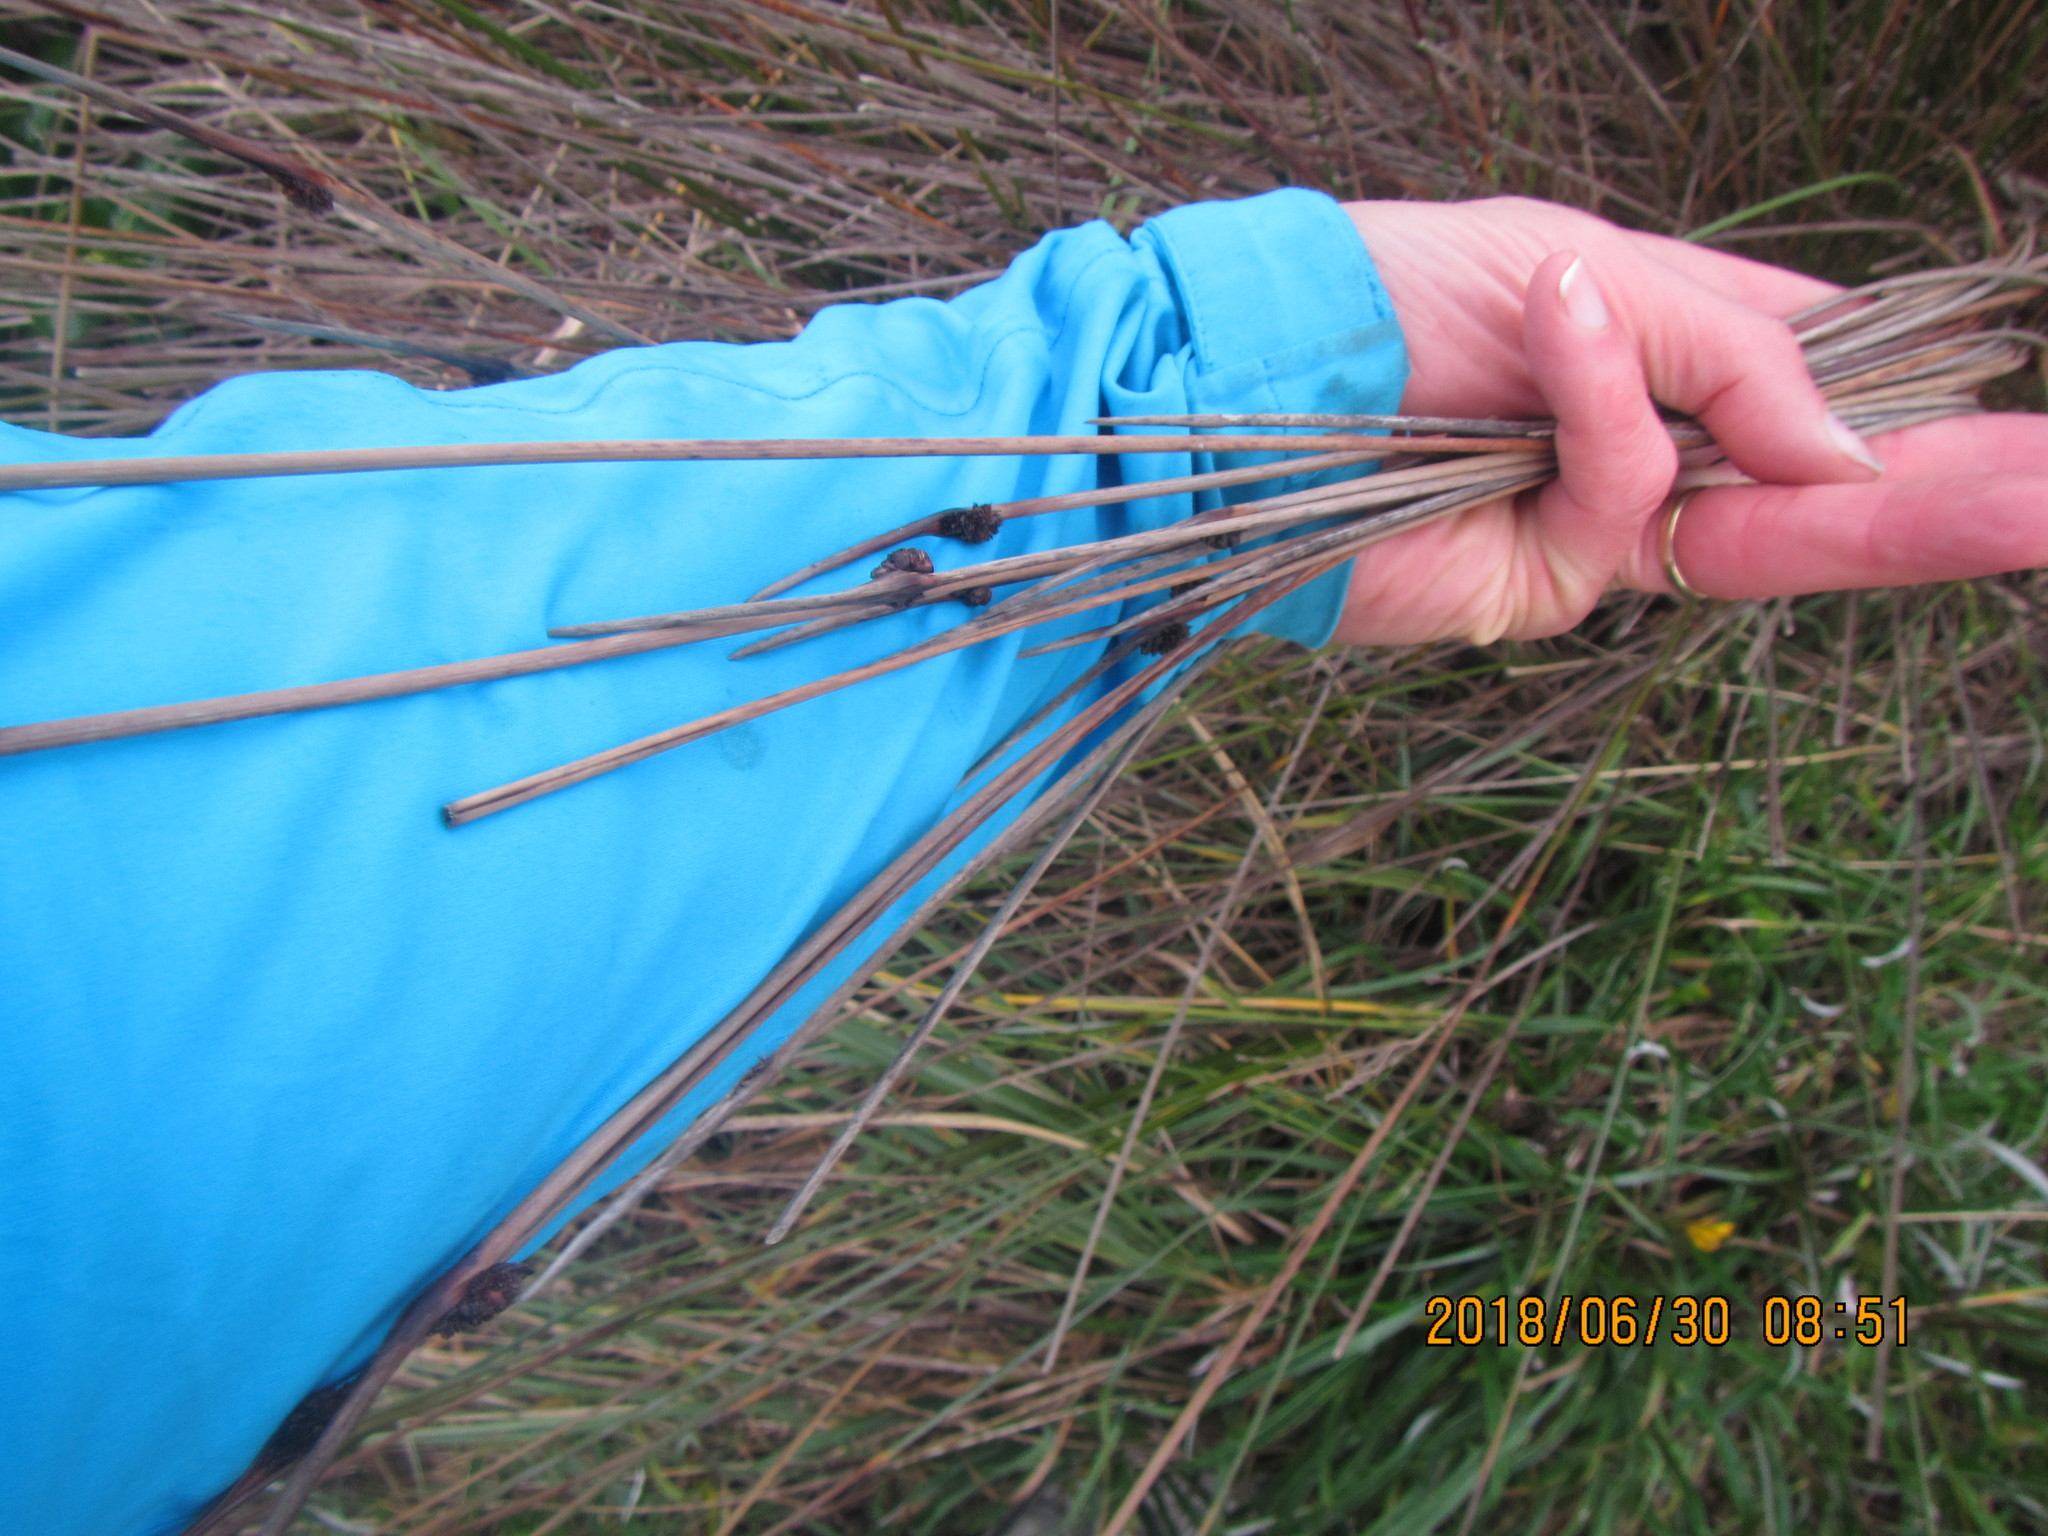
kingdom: Plantae
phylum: Tracheophyta
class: Liliopsida
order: Poales
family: Cyperaceae
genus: Ficinia
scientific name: Ficinia nodosa
